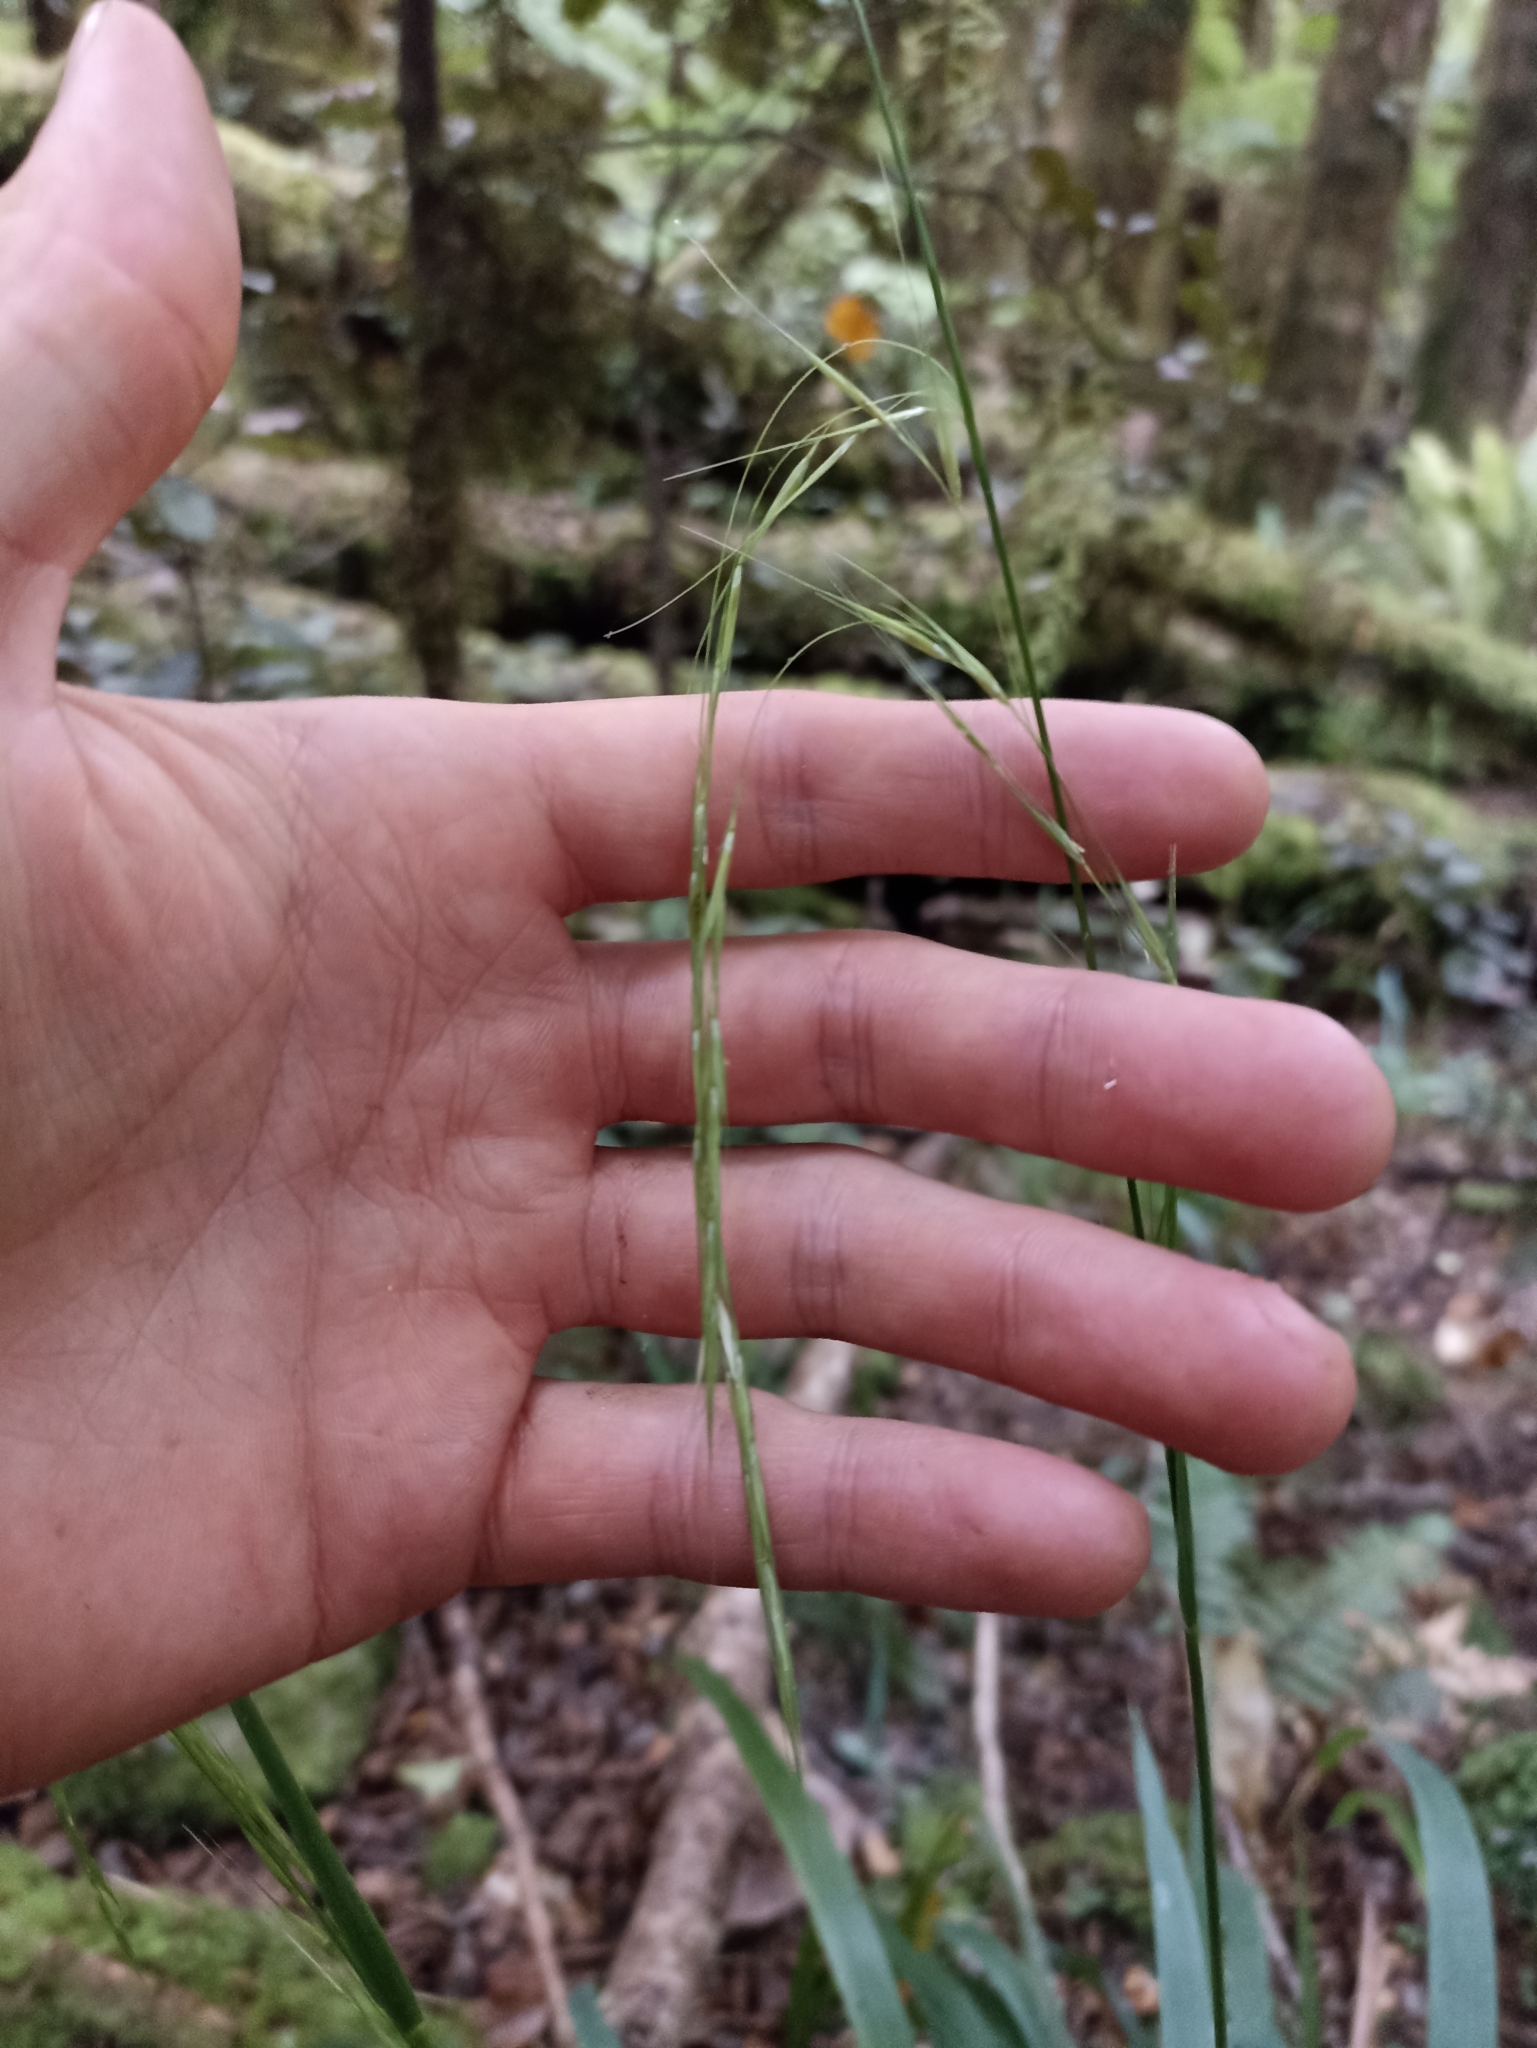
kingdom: Plantae
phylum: Tracheophyta
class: Liliopsida
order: Poales
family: Poaceae
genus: Ehrharta
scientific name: Ehrharta diplax
